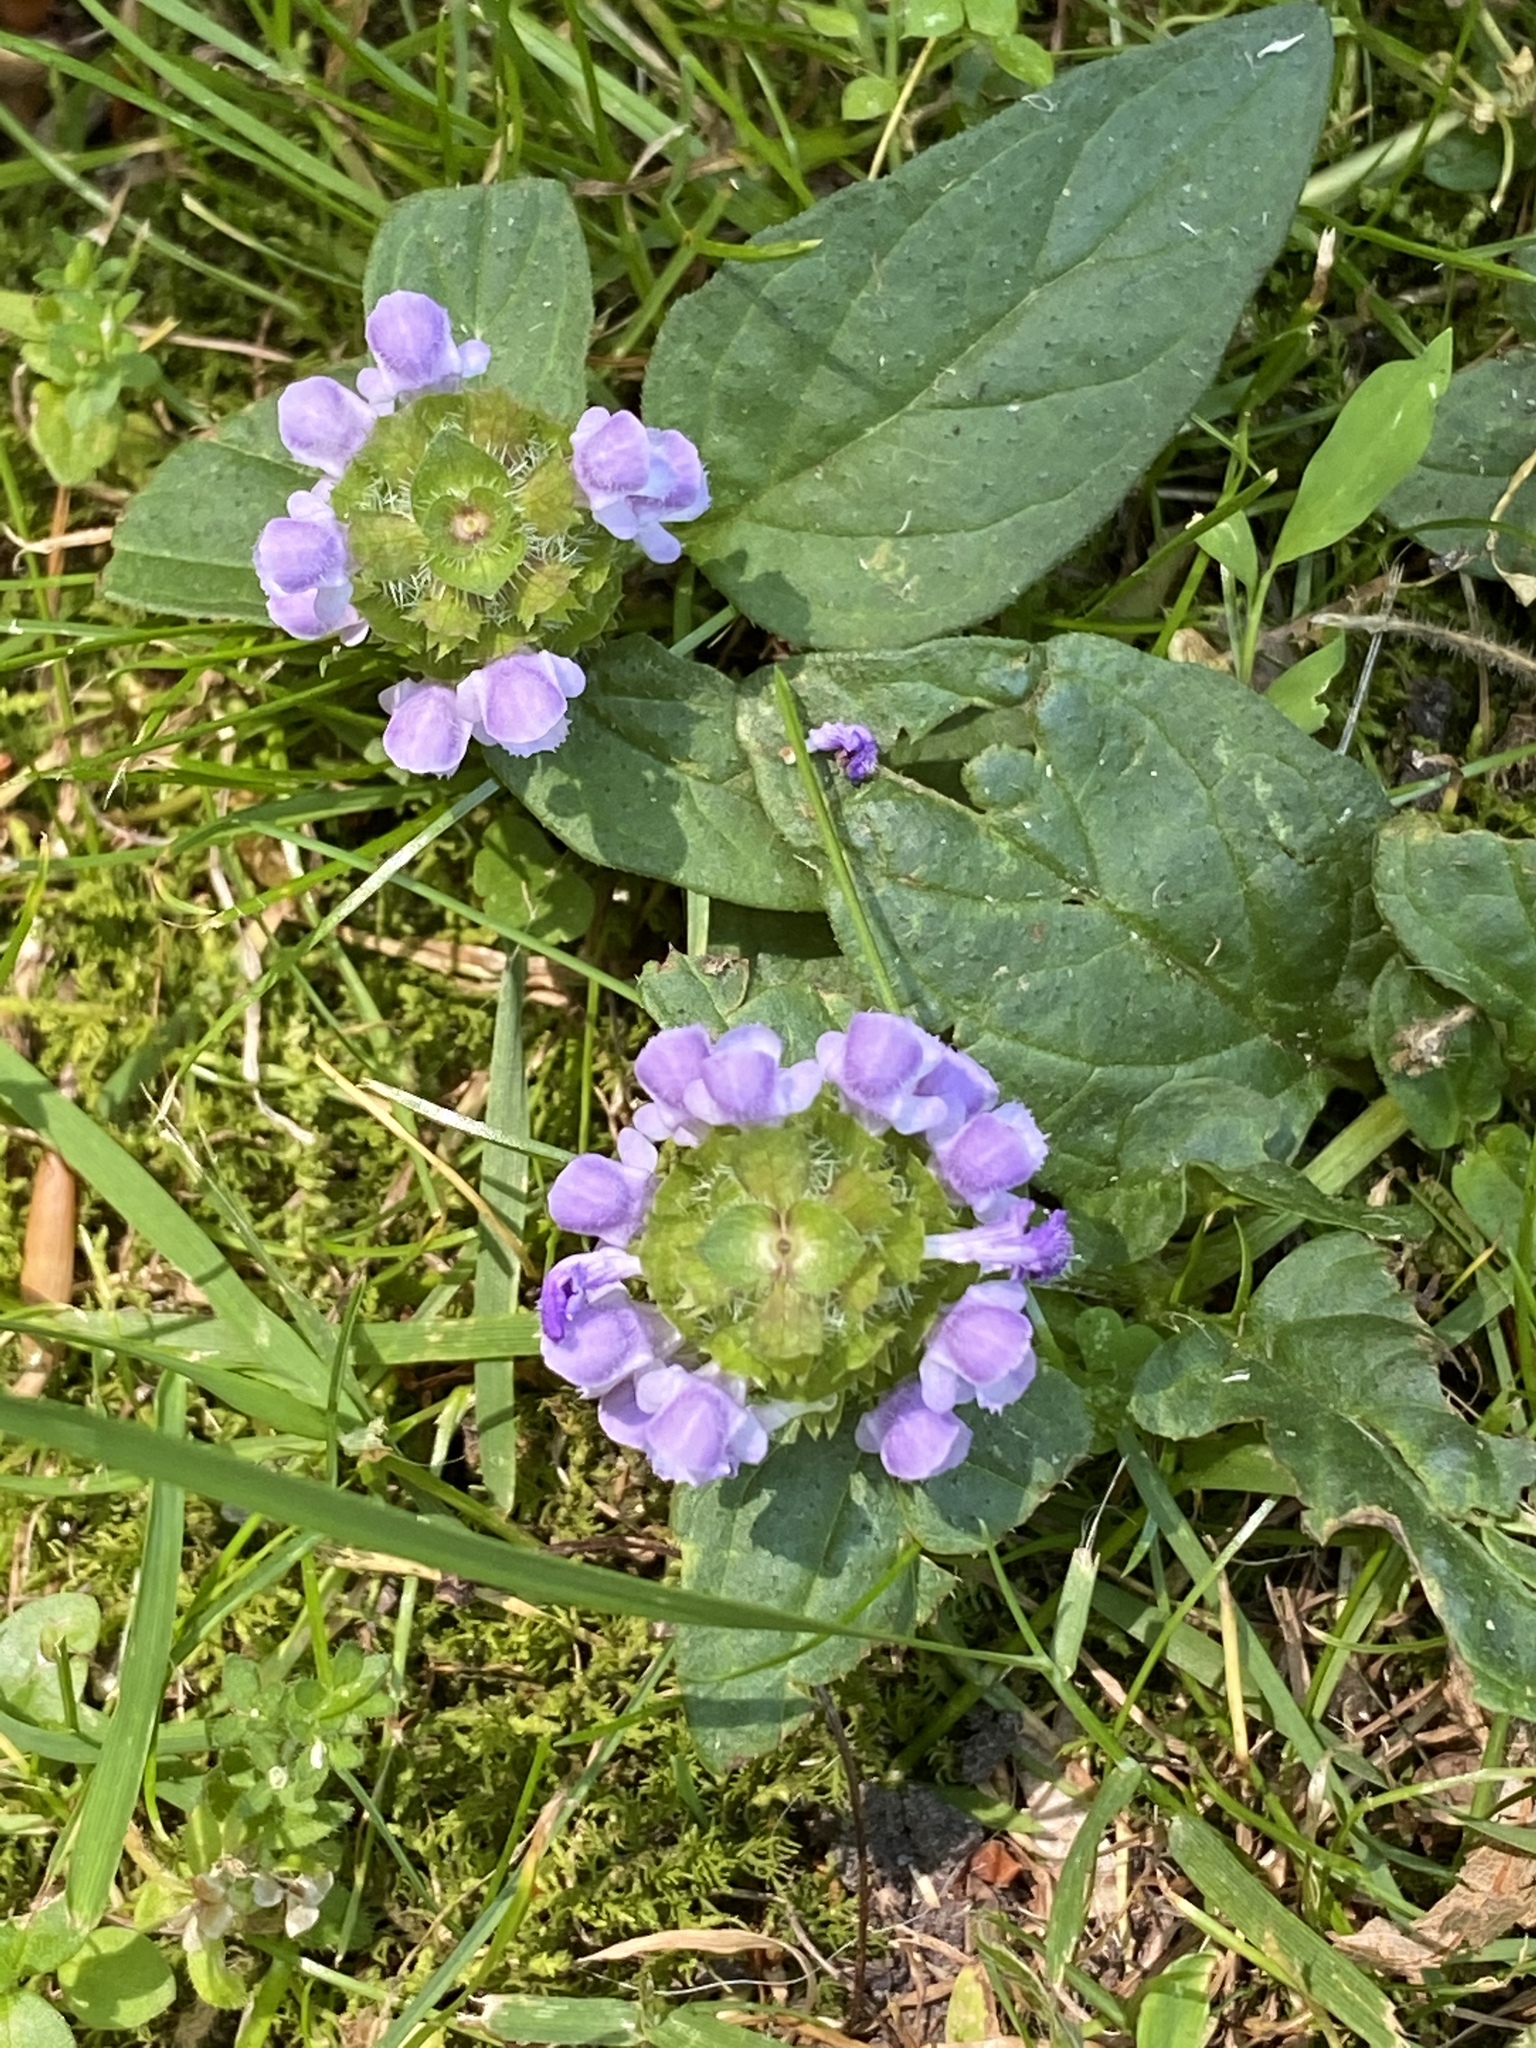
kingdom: Plantae
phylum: Tracheophyta
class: Magnoliopsida
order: Lamiales
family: Lamiaceae
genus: Prunella
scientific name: Prunella vulgaris
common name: Heal-all
